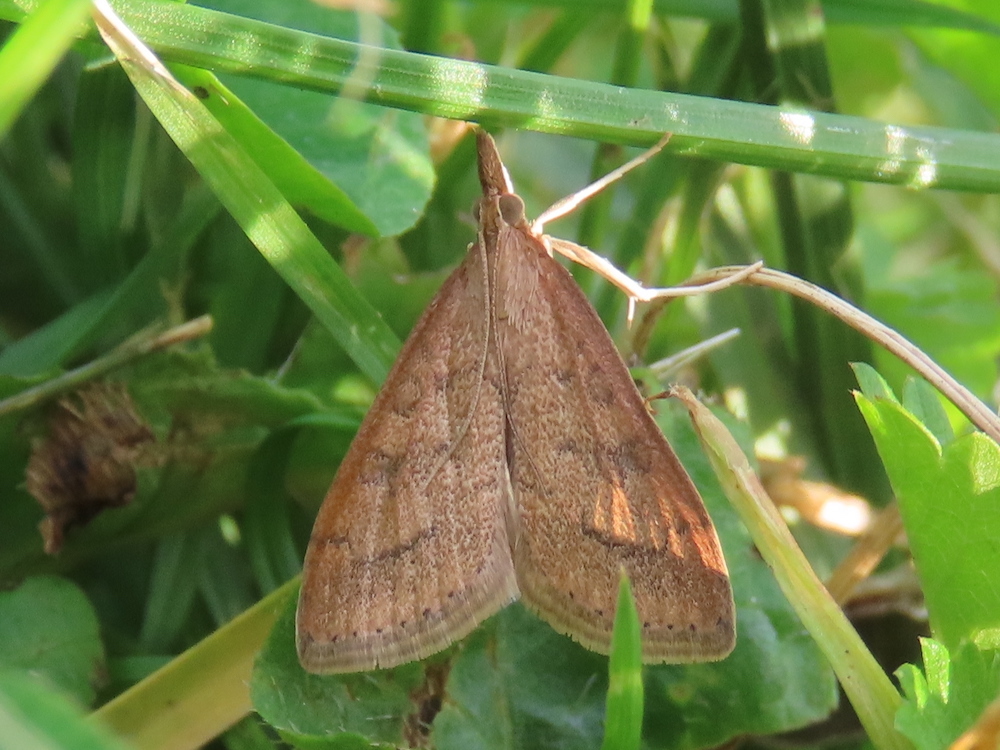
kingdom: Animalia
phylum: Arthropoda
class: Insecta
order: Lepidoptera
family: Crambidae
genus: Udea
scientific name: Udea rubigalis
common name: Celery leaftier moth
